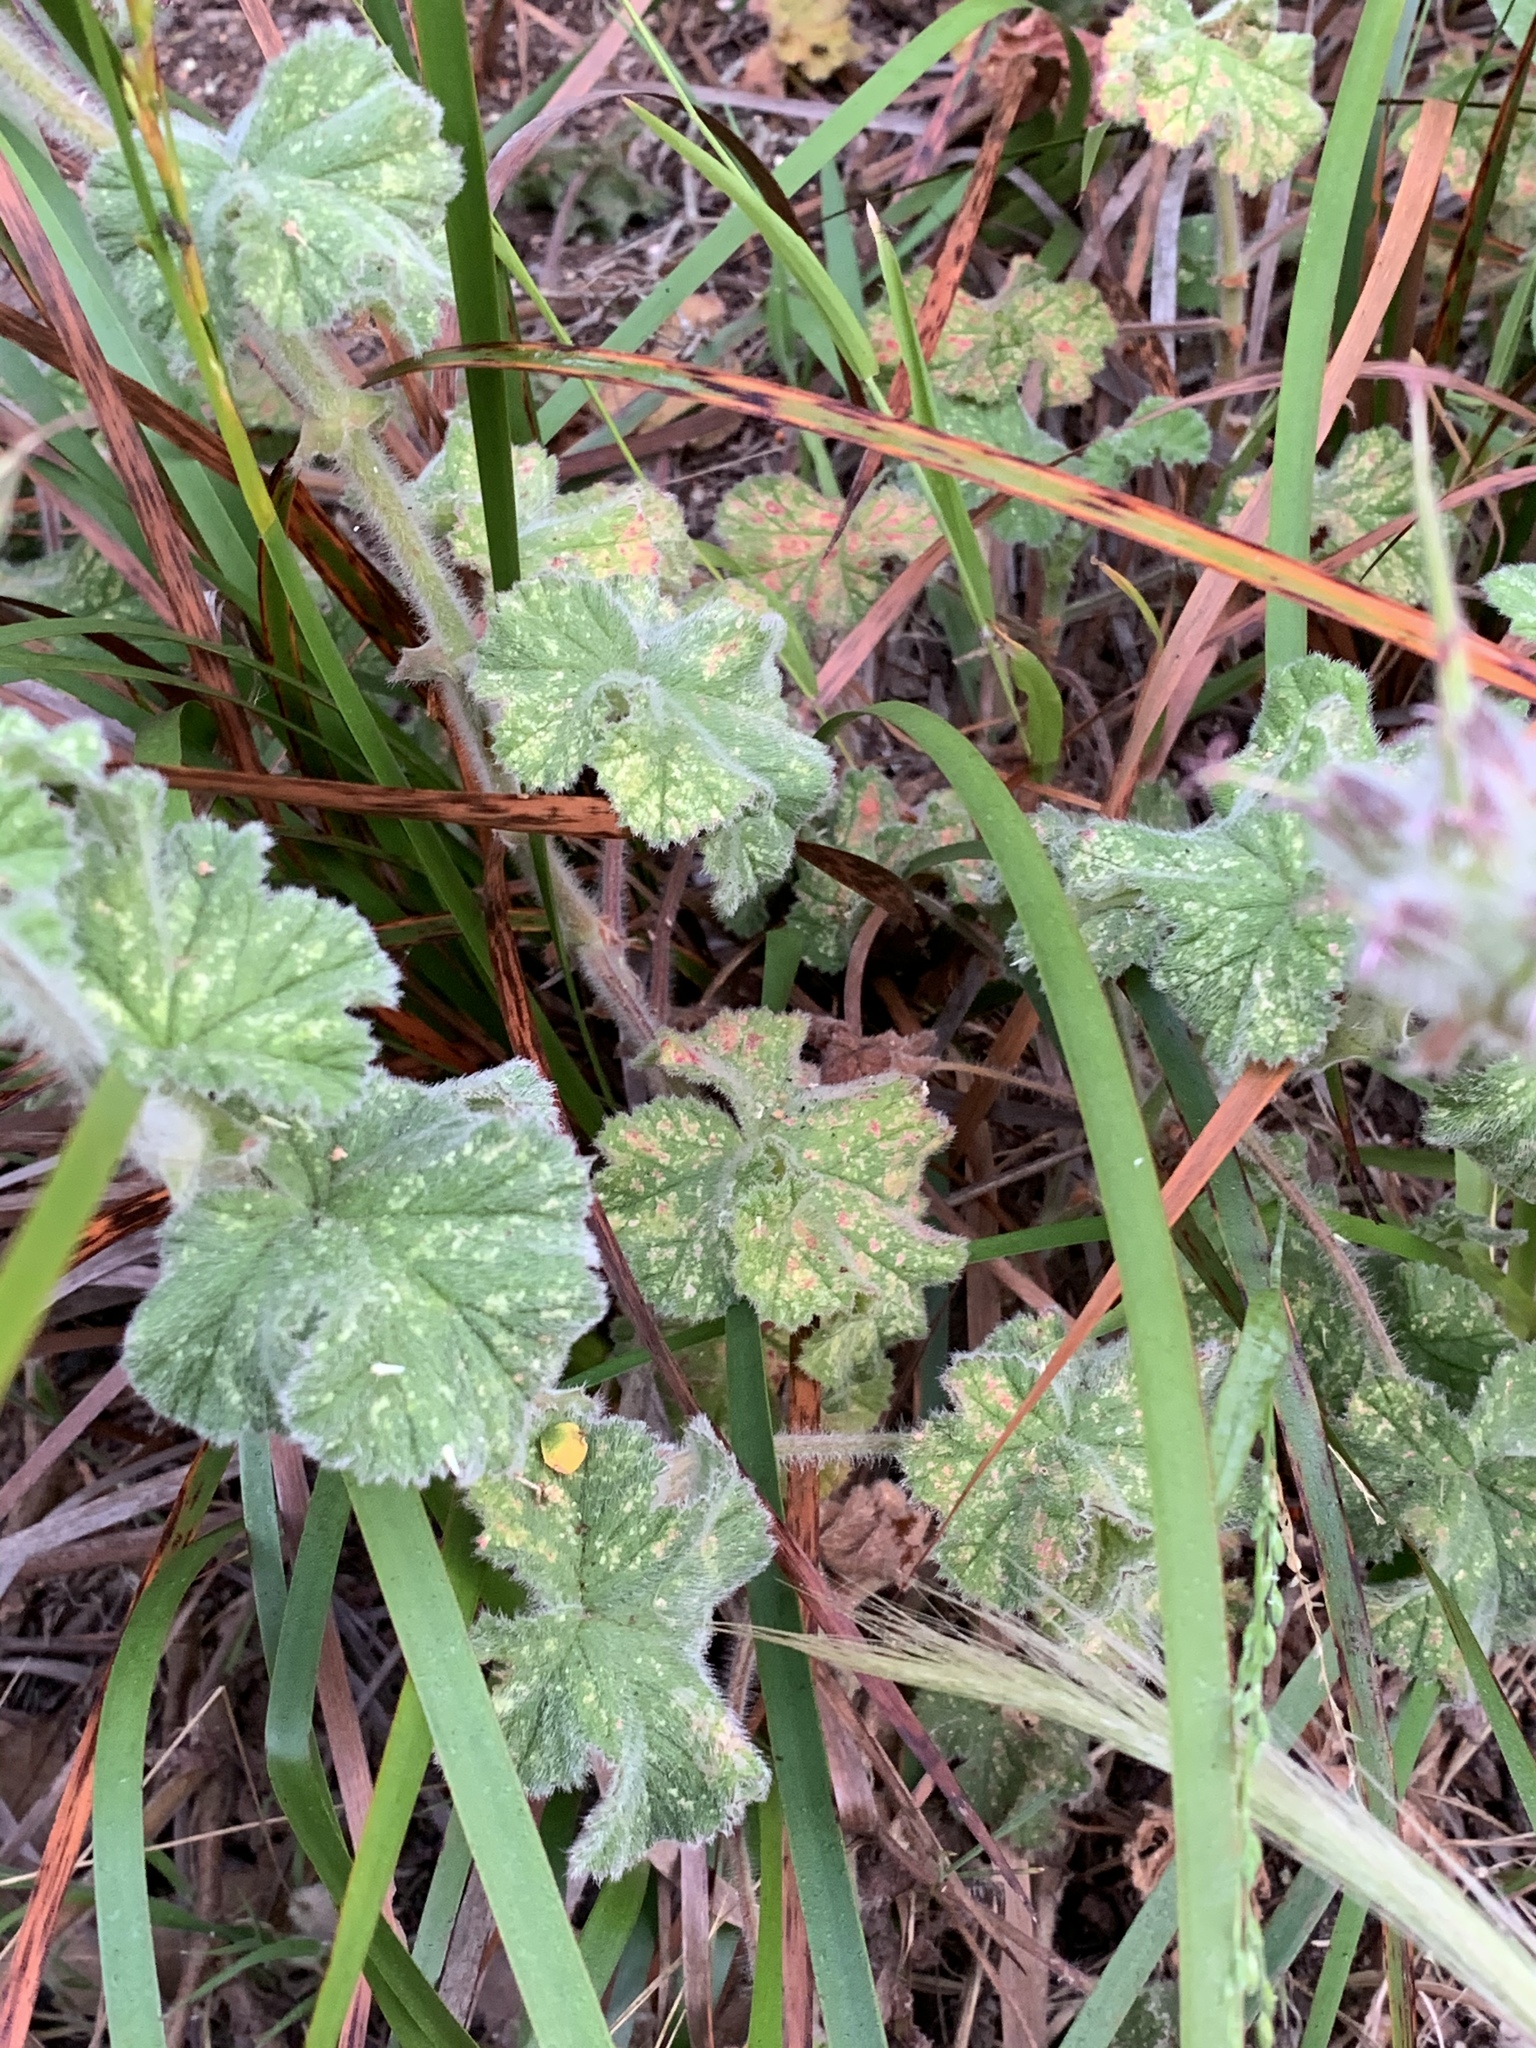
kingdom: Plantae
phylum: Tracheophyta
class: Magnoliopsida
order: Geraniales
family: Geraniaceae
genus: Pelargonium
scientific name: Pelargonium capitatum
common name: Rose scented geranium
